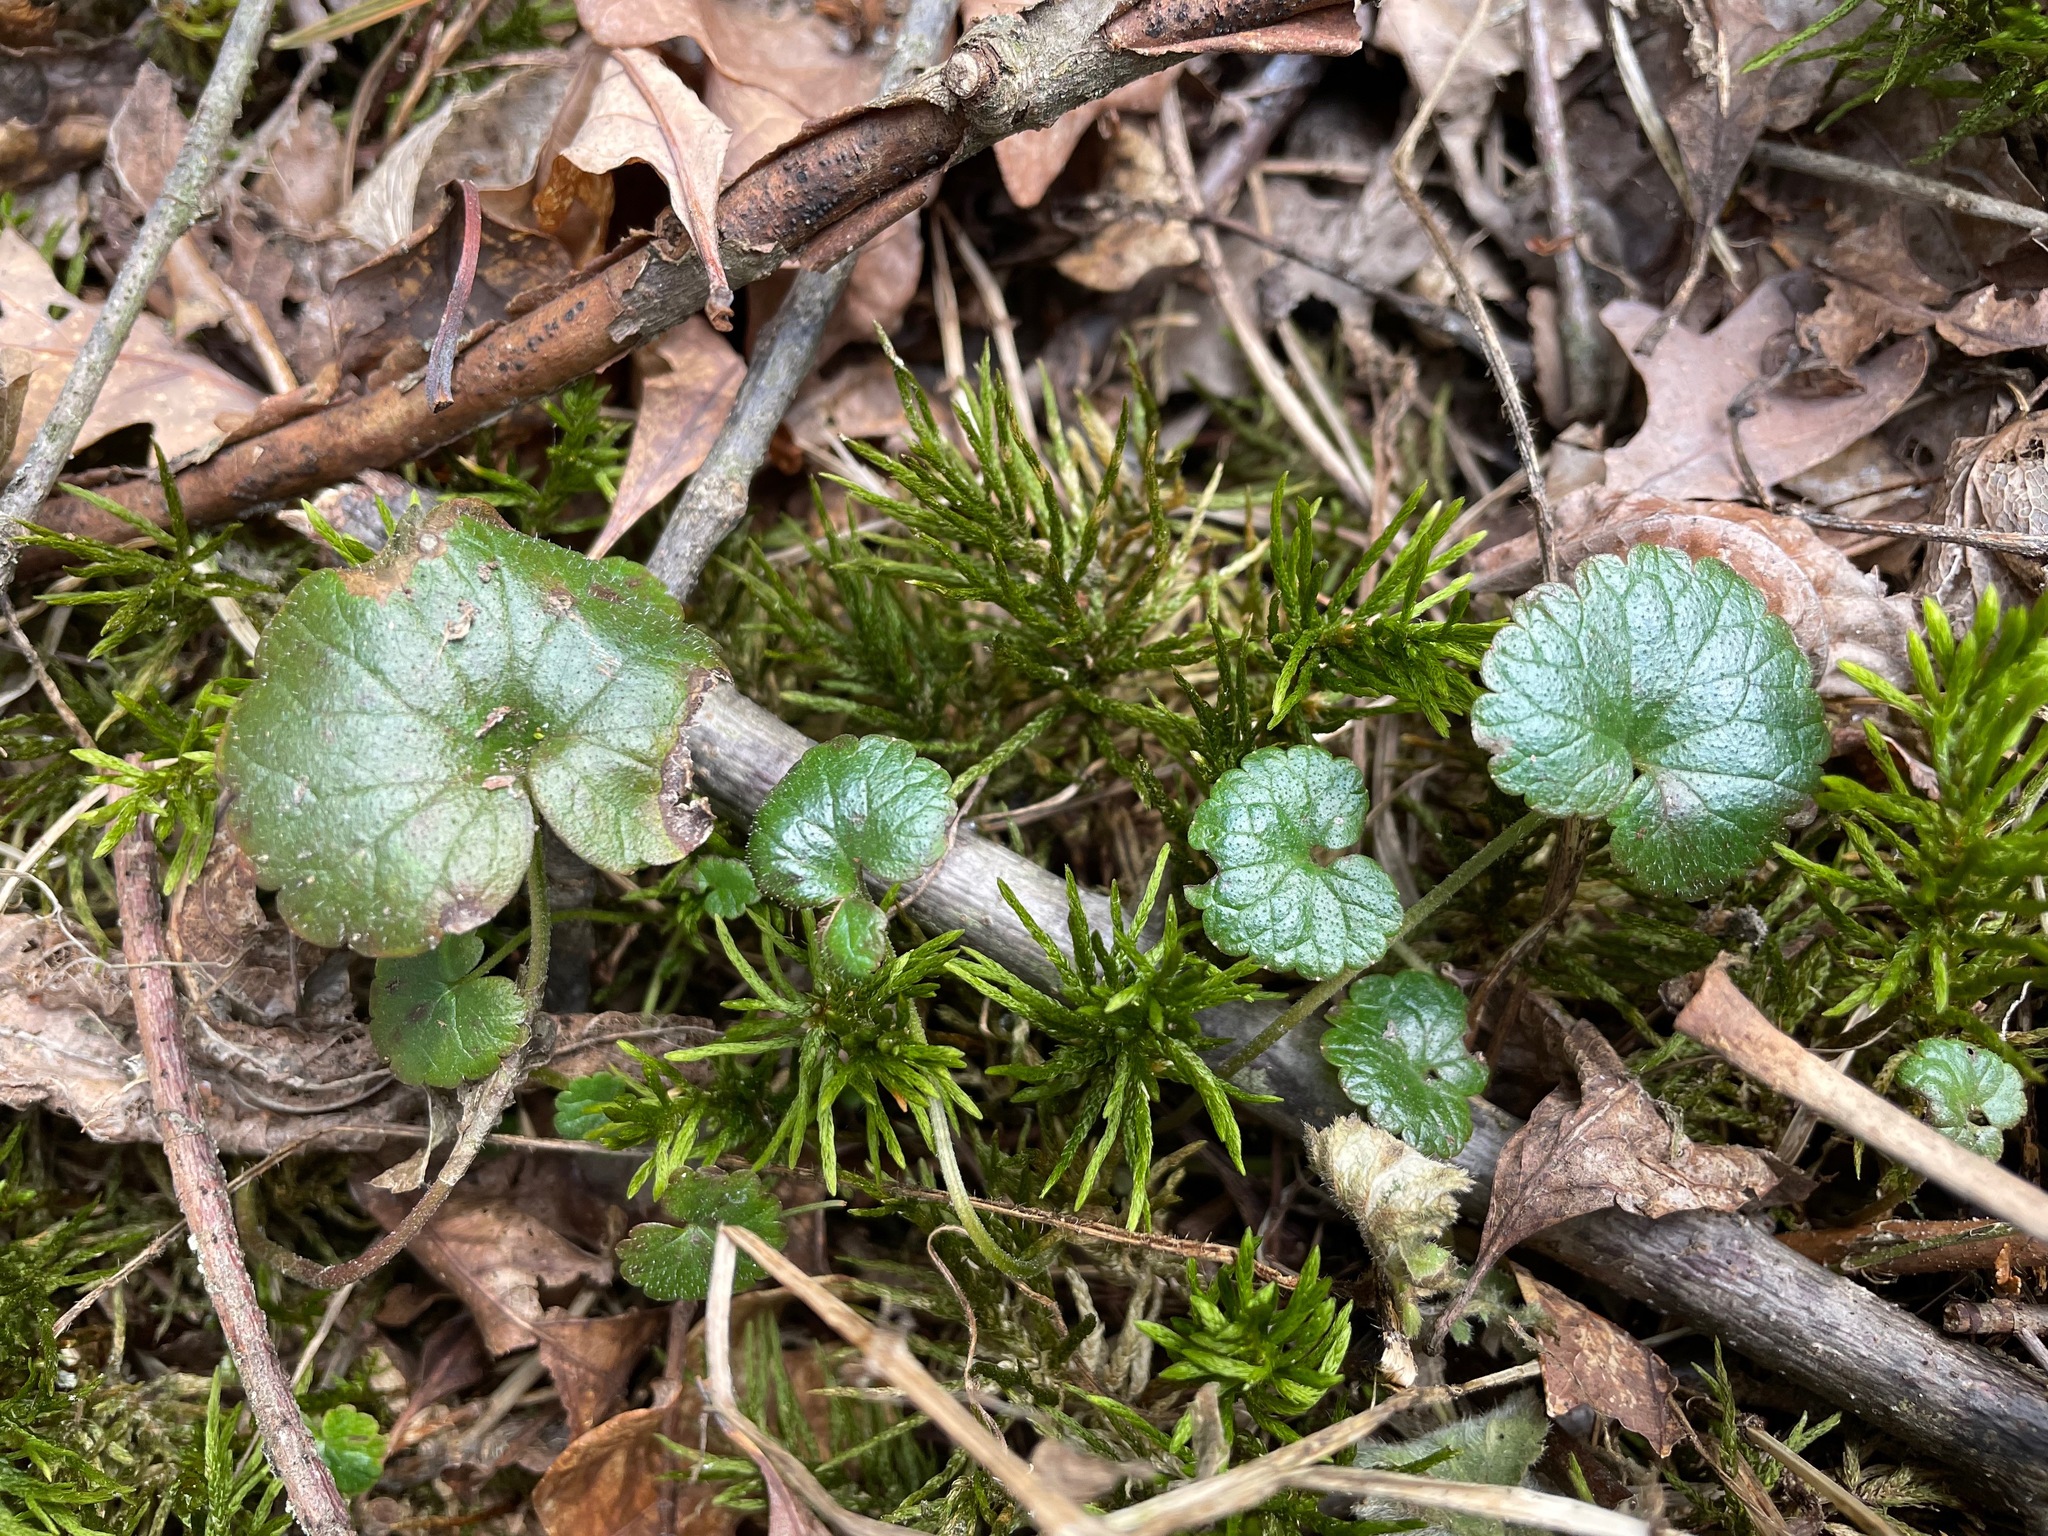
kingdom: Plantae
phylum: Tracheophyta
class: Magnoliopsida
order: Lamiales
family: Lamiaceae
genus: Glechoma
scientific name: Glechoma hederacea
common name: Ground ivy
